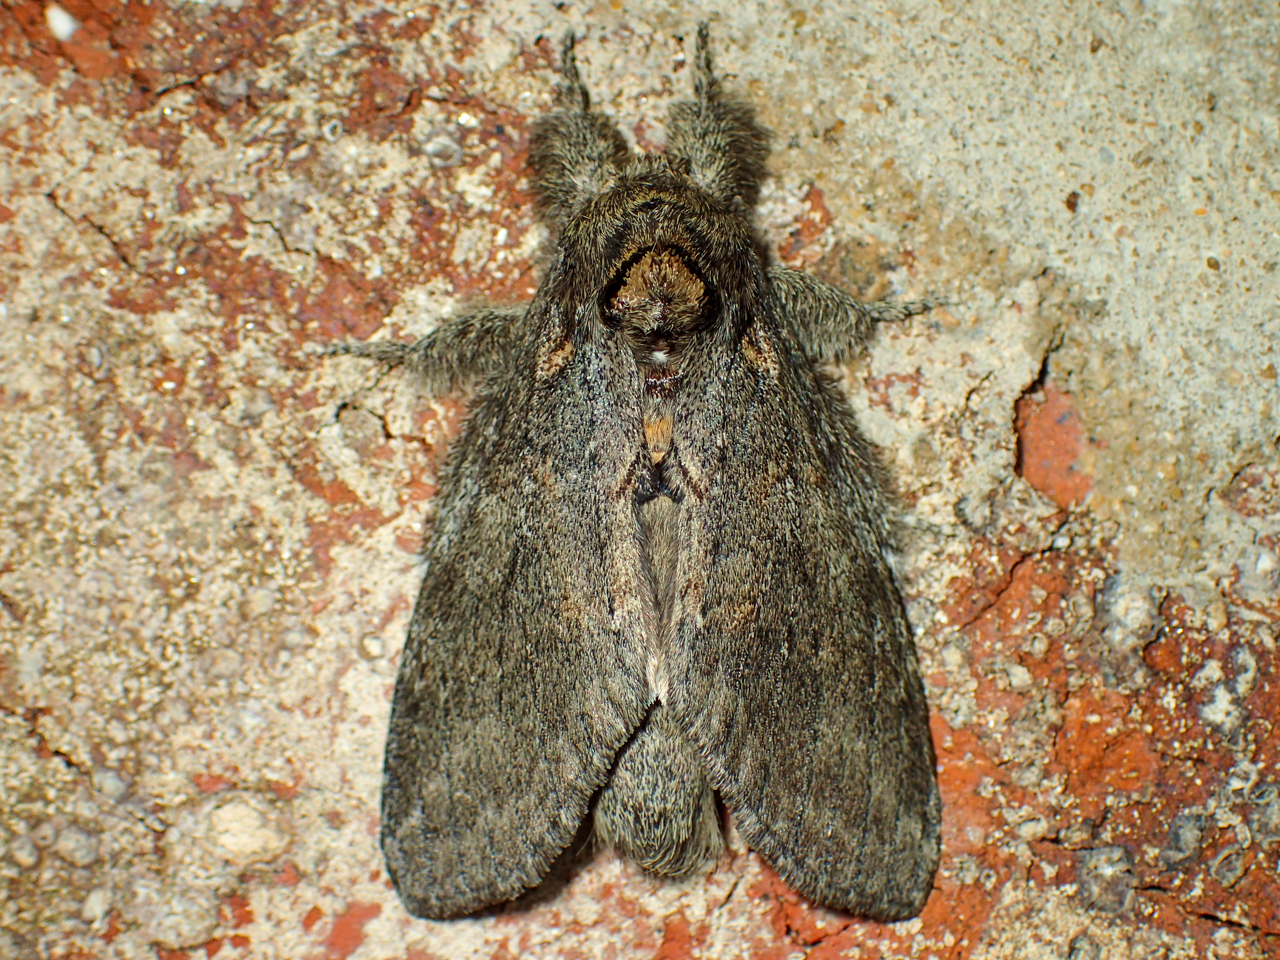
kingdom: Animalia
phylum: Arthropoda
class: Insecta
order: Lepidoptera
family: Notodontidae
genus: Peridea
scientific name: Peridea angulosa
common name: Angulose prominent
